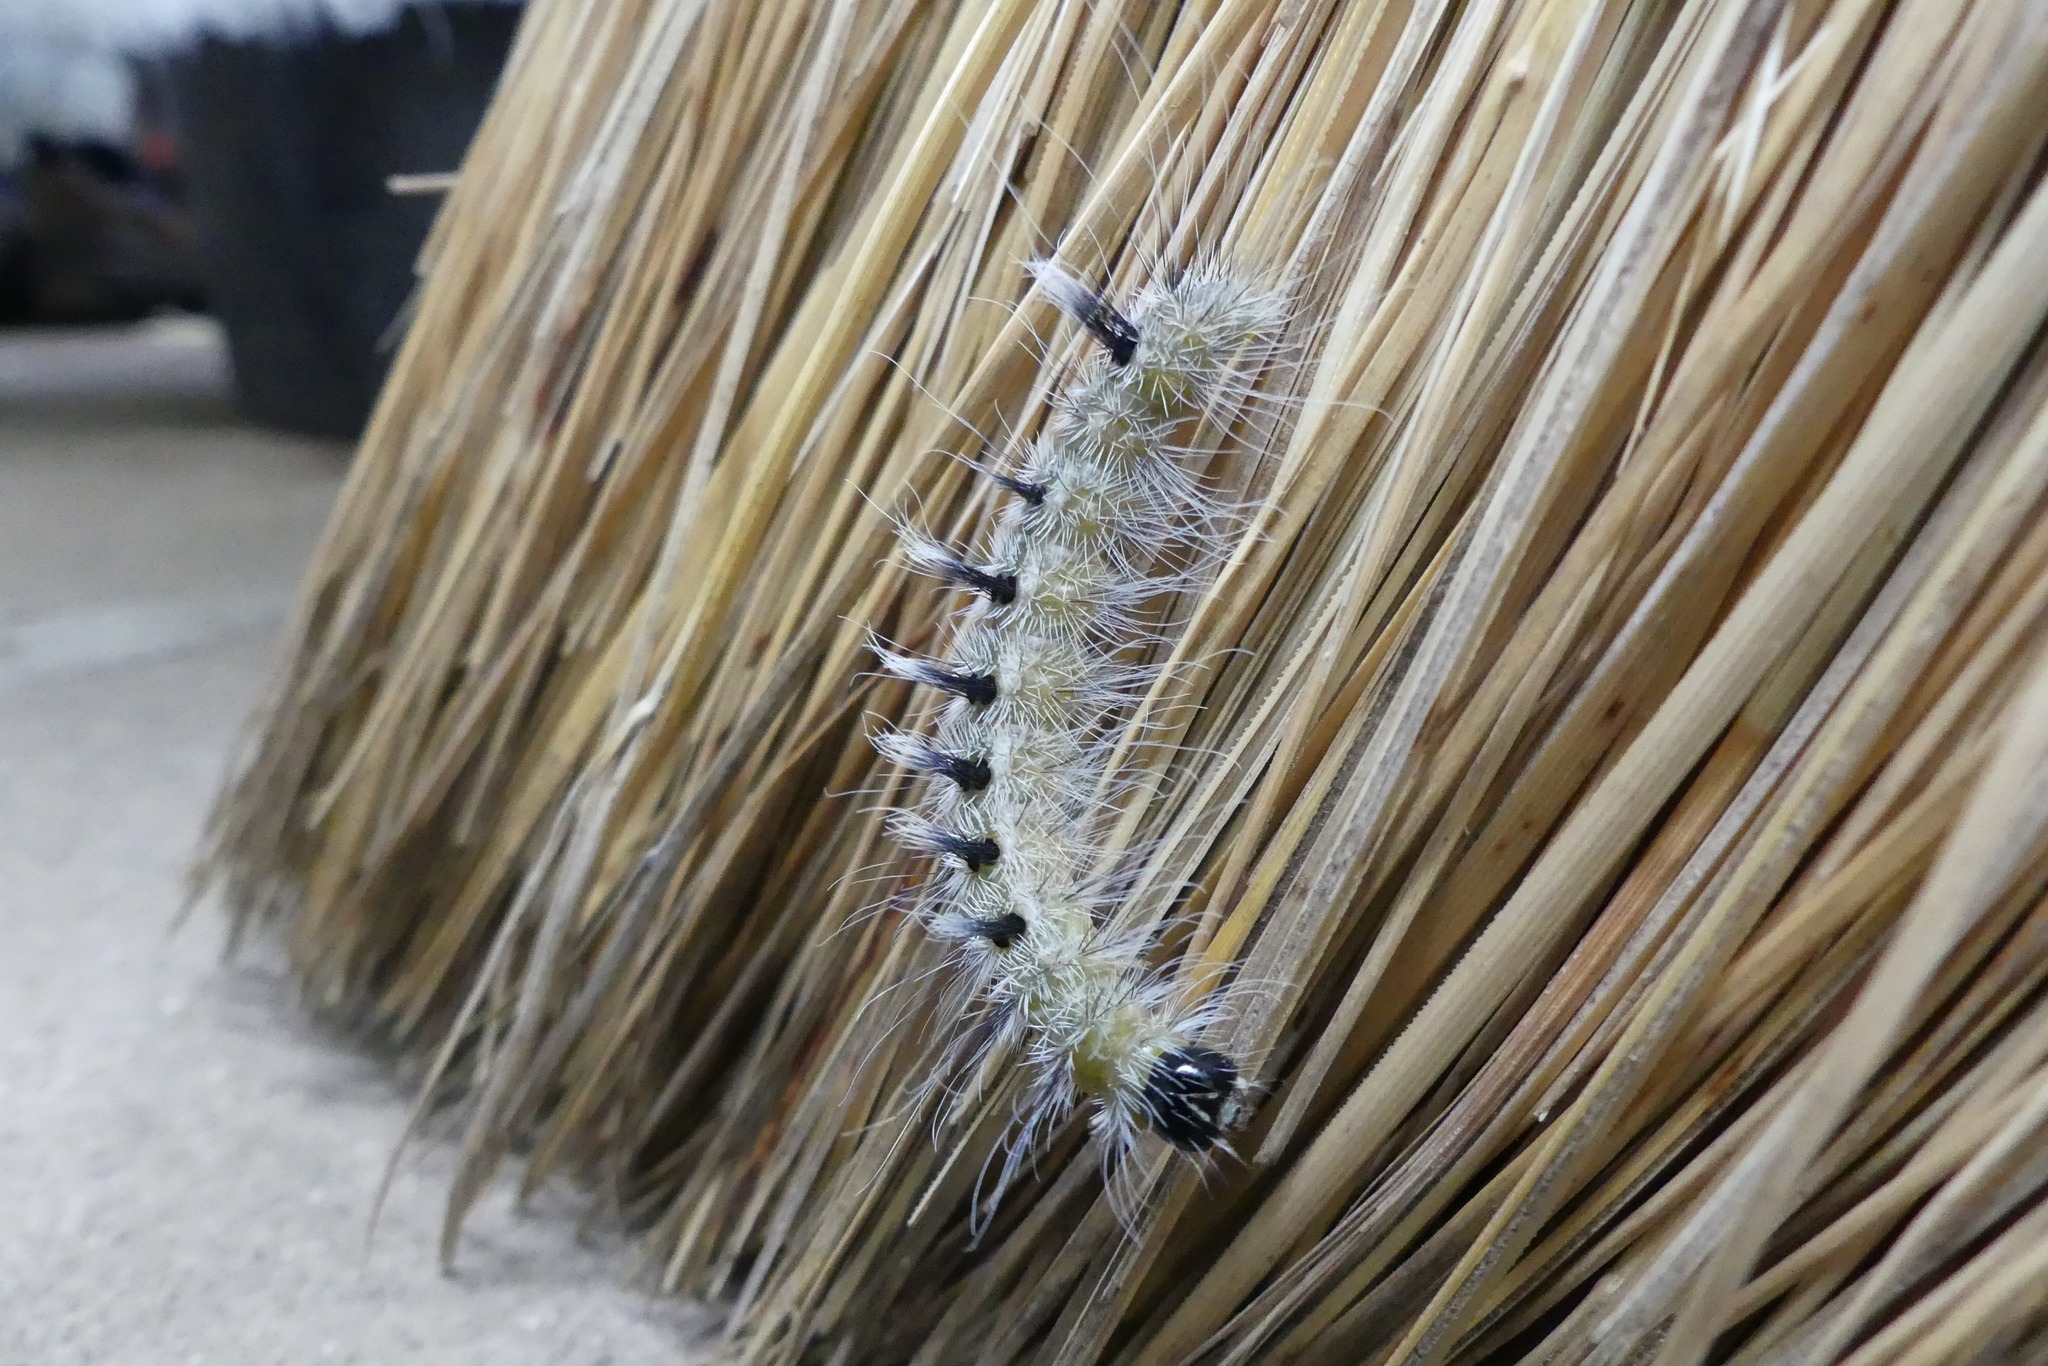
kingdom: Animalia
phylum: Arthropoda
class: Insecta
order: Lepidoptera
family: Noctuidae
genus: Acronicta
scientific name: Acronicta rubricoma
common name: Hackberry dagger
